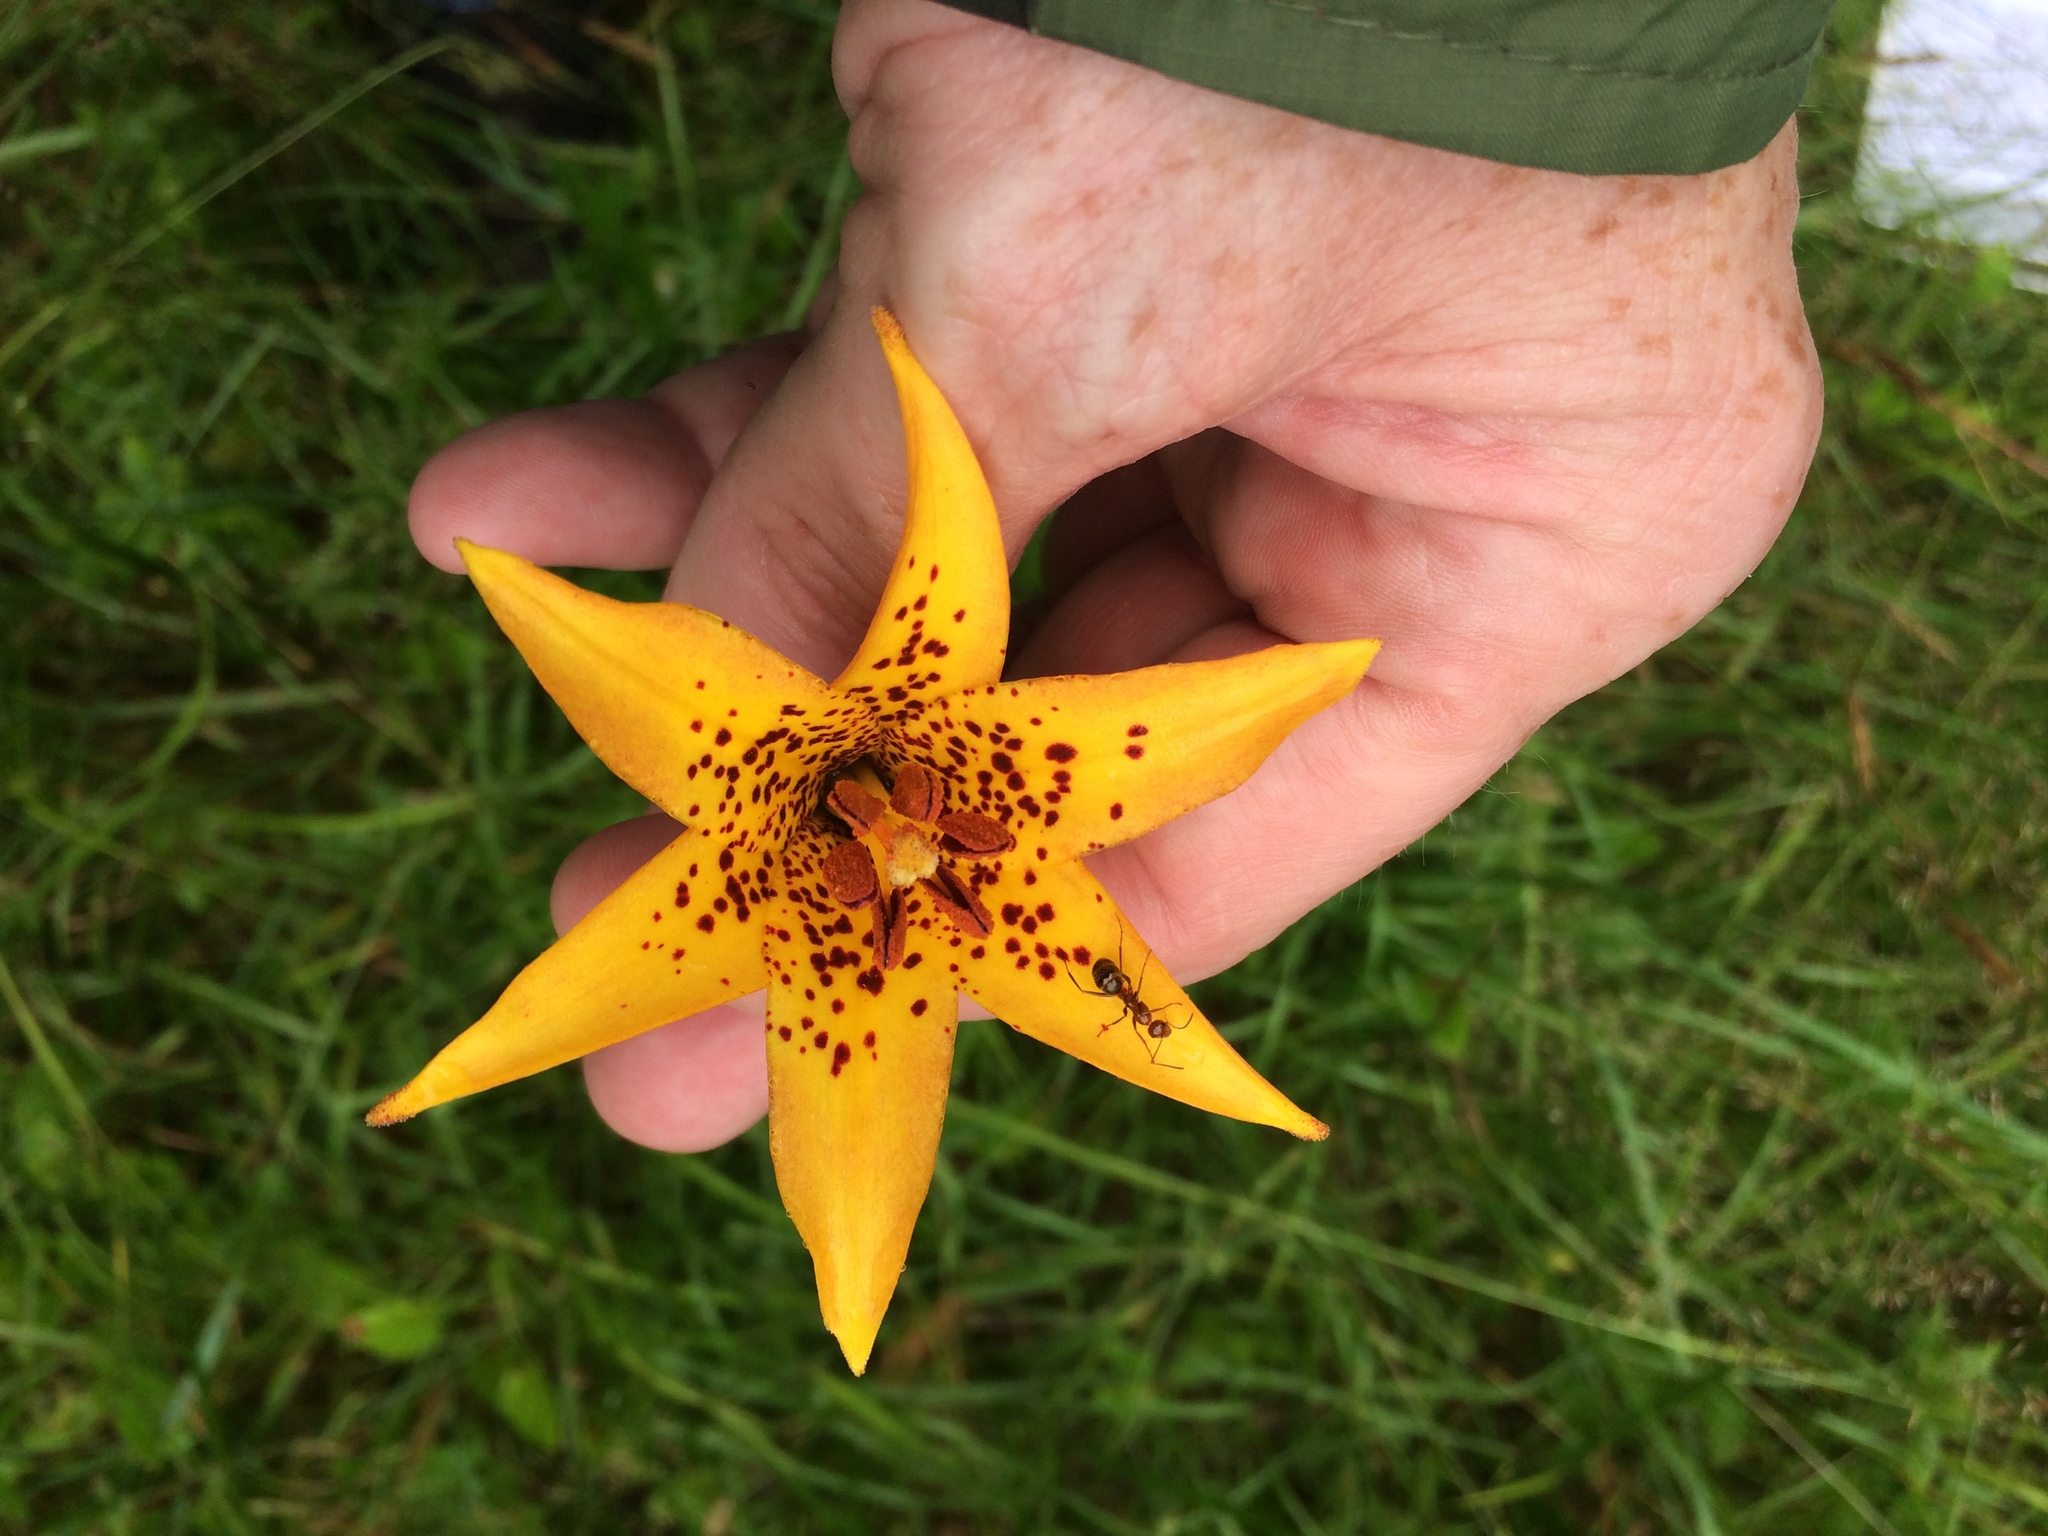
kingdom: Plantae
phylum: Tracheophyta
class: Liliopsida
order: Liliales
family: Liliaceae
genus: Lilium
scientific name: Lilium canadense
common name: Canada lily
